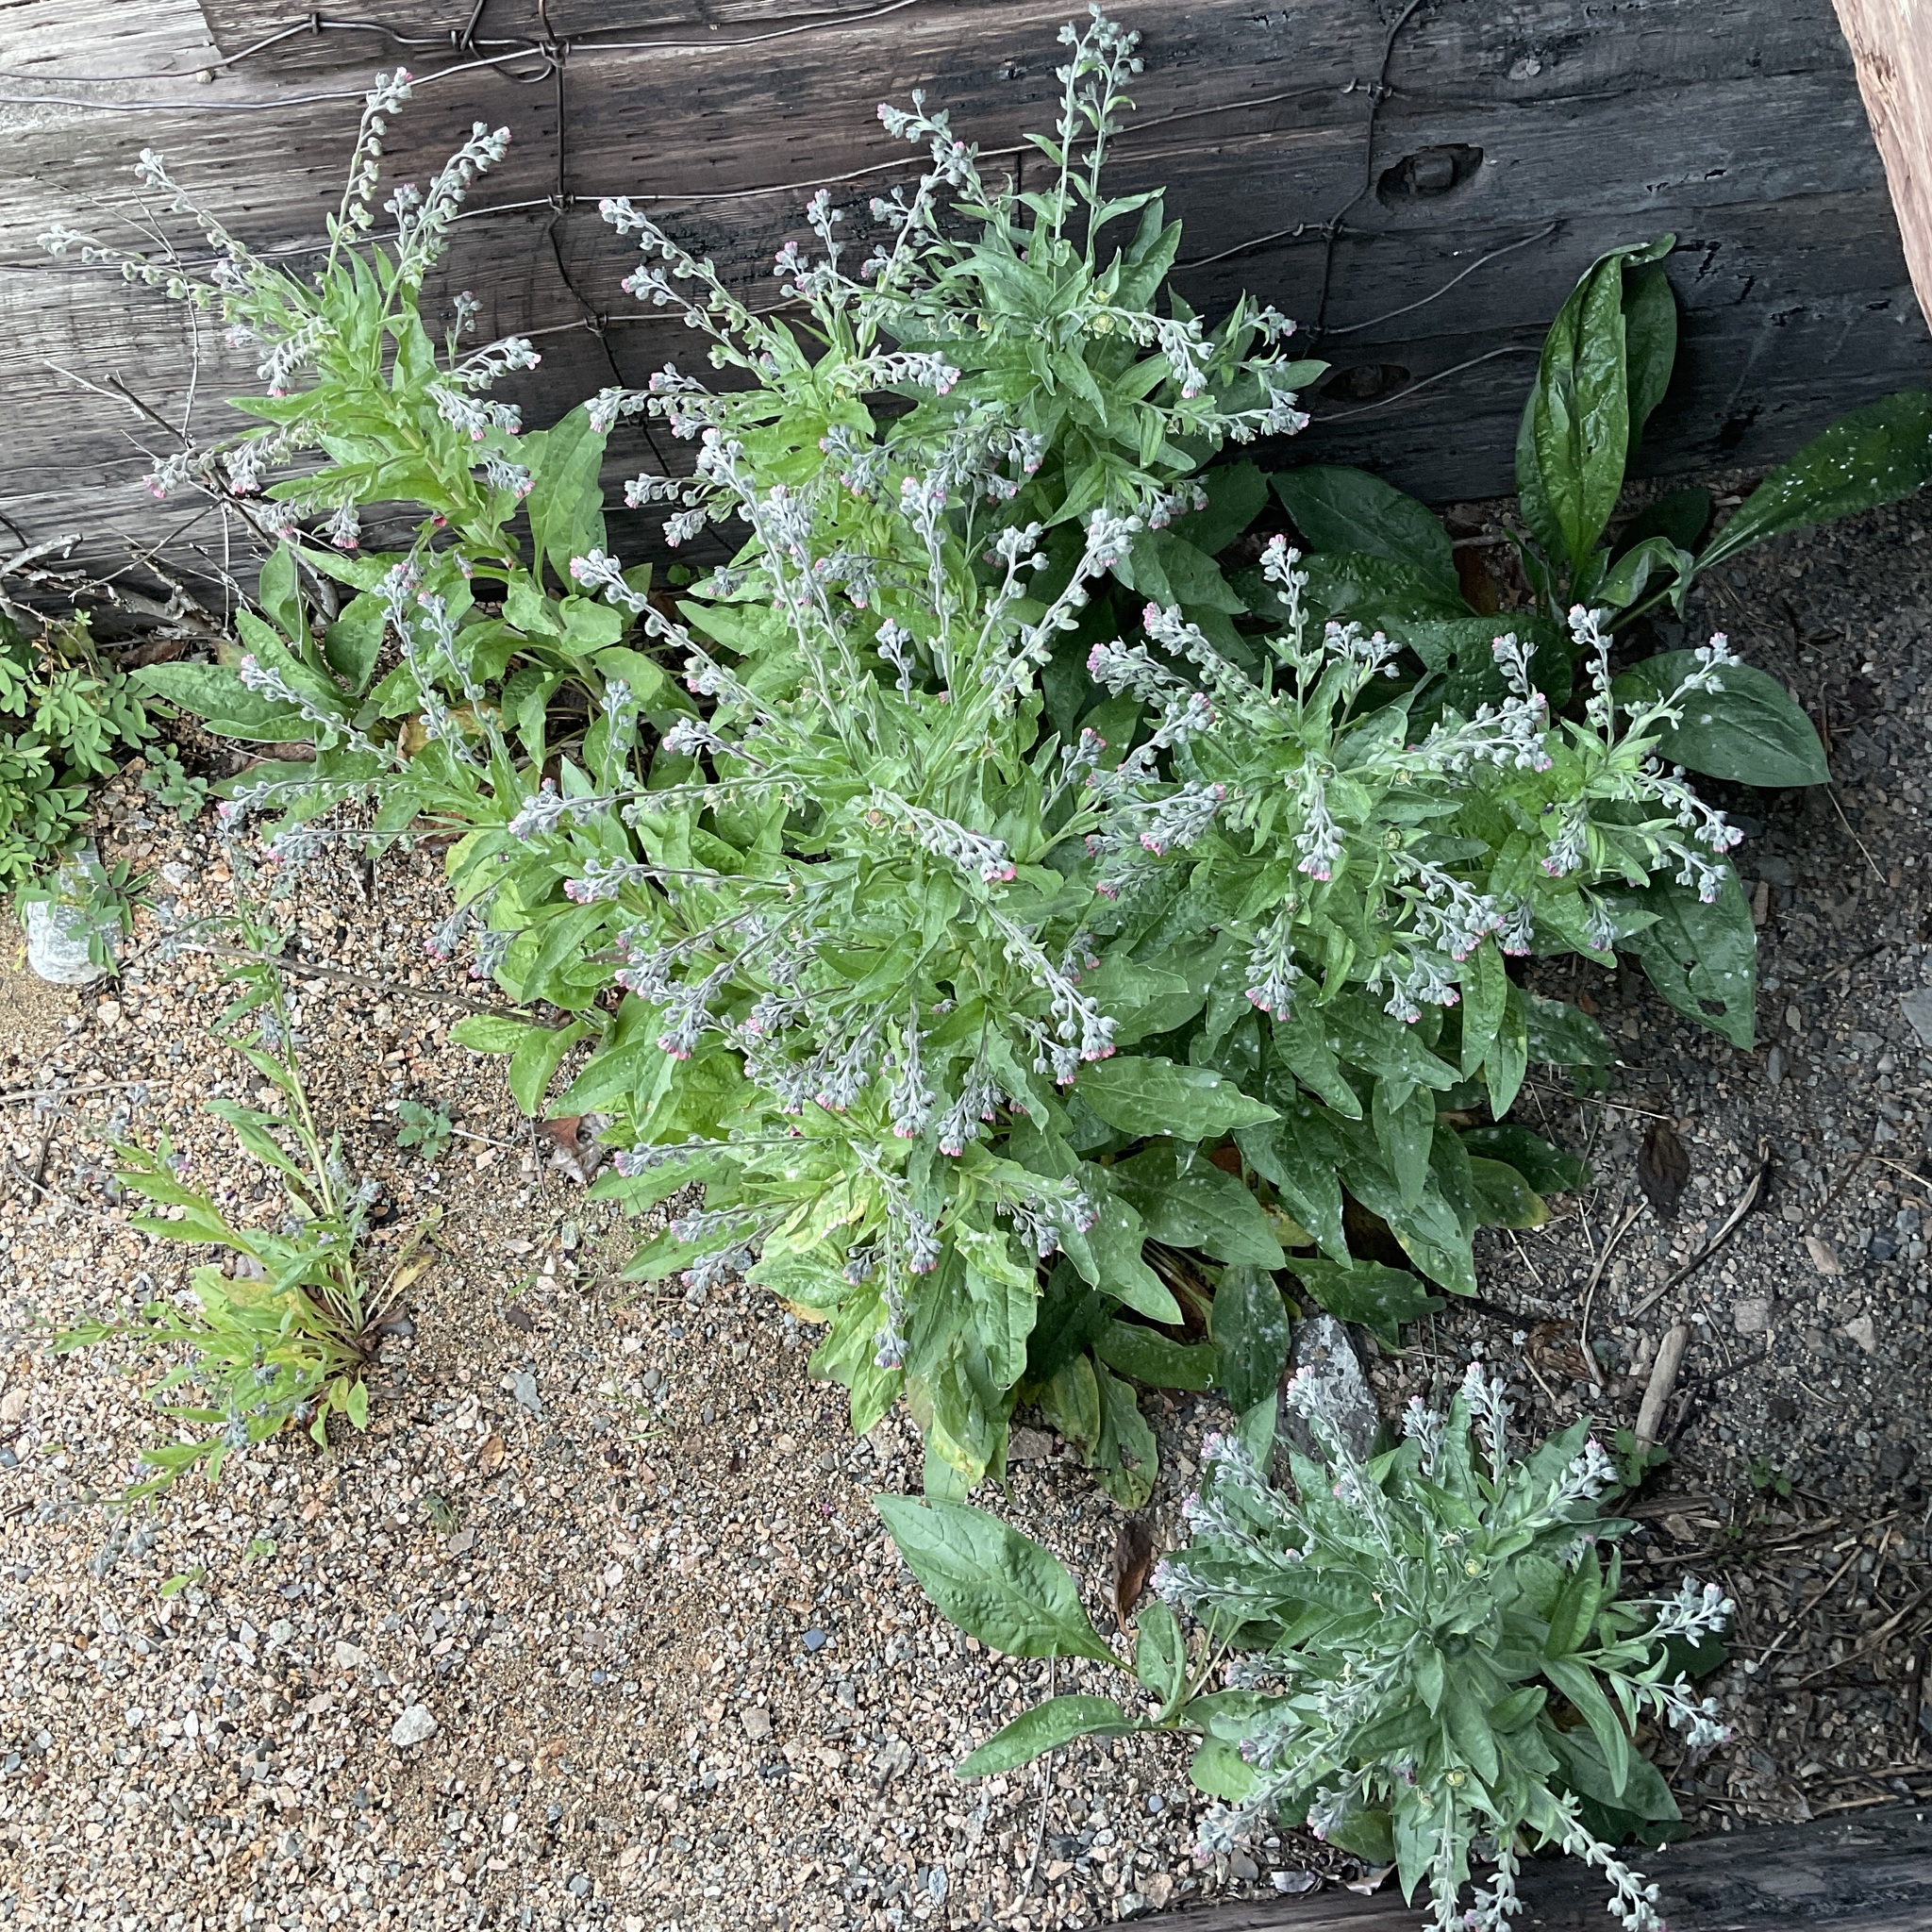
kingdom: Plantae
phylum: Tracheophyta
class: Magnoliopsida
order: Boraginales
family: Boraginaceae
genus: Cynoglossum
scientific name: Cynoglossum officinale
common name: Hound's-tongue
